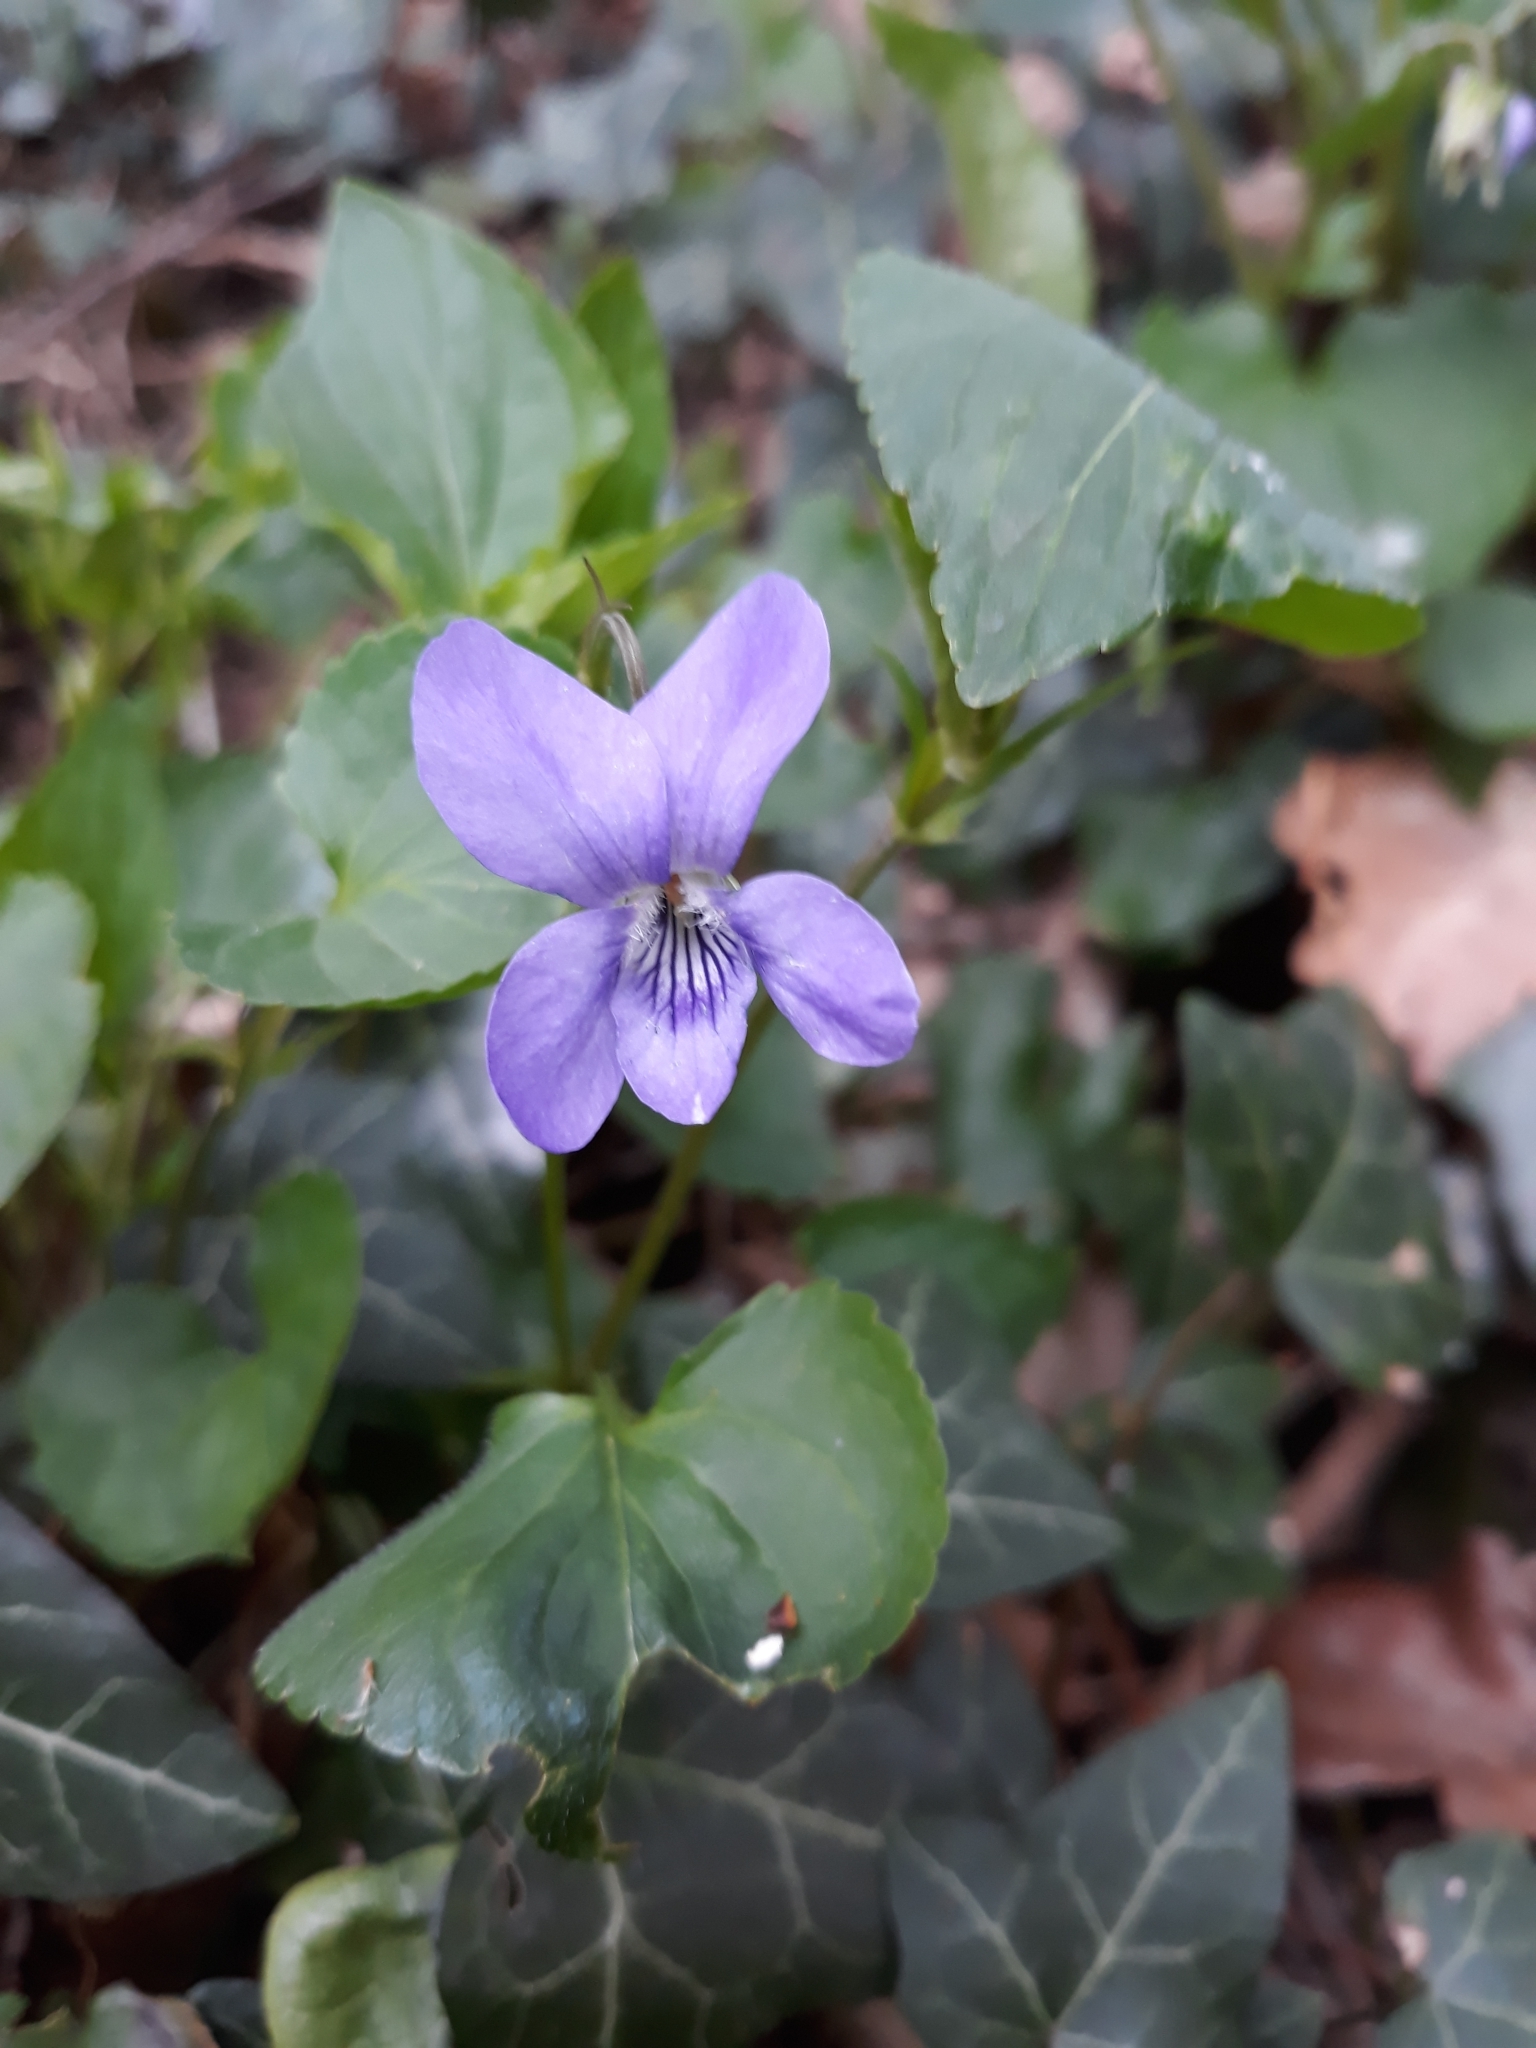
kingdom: Plantae
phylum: Tracheophyta
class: Magnoliopsida
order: Malpighiales
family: Violaceae
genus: Viola
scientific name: Viola riviniana
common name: Common dog-violet
